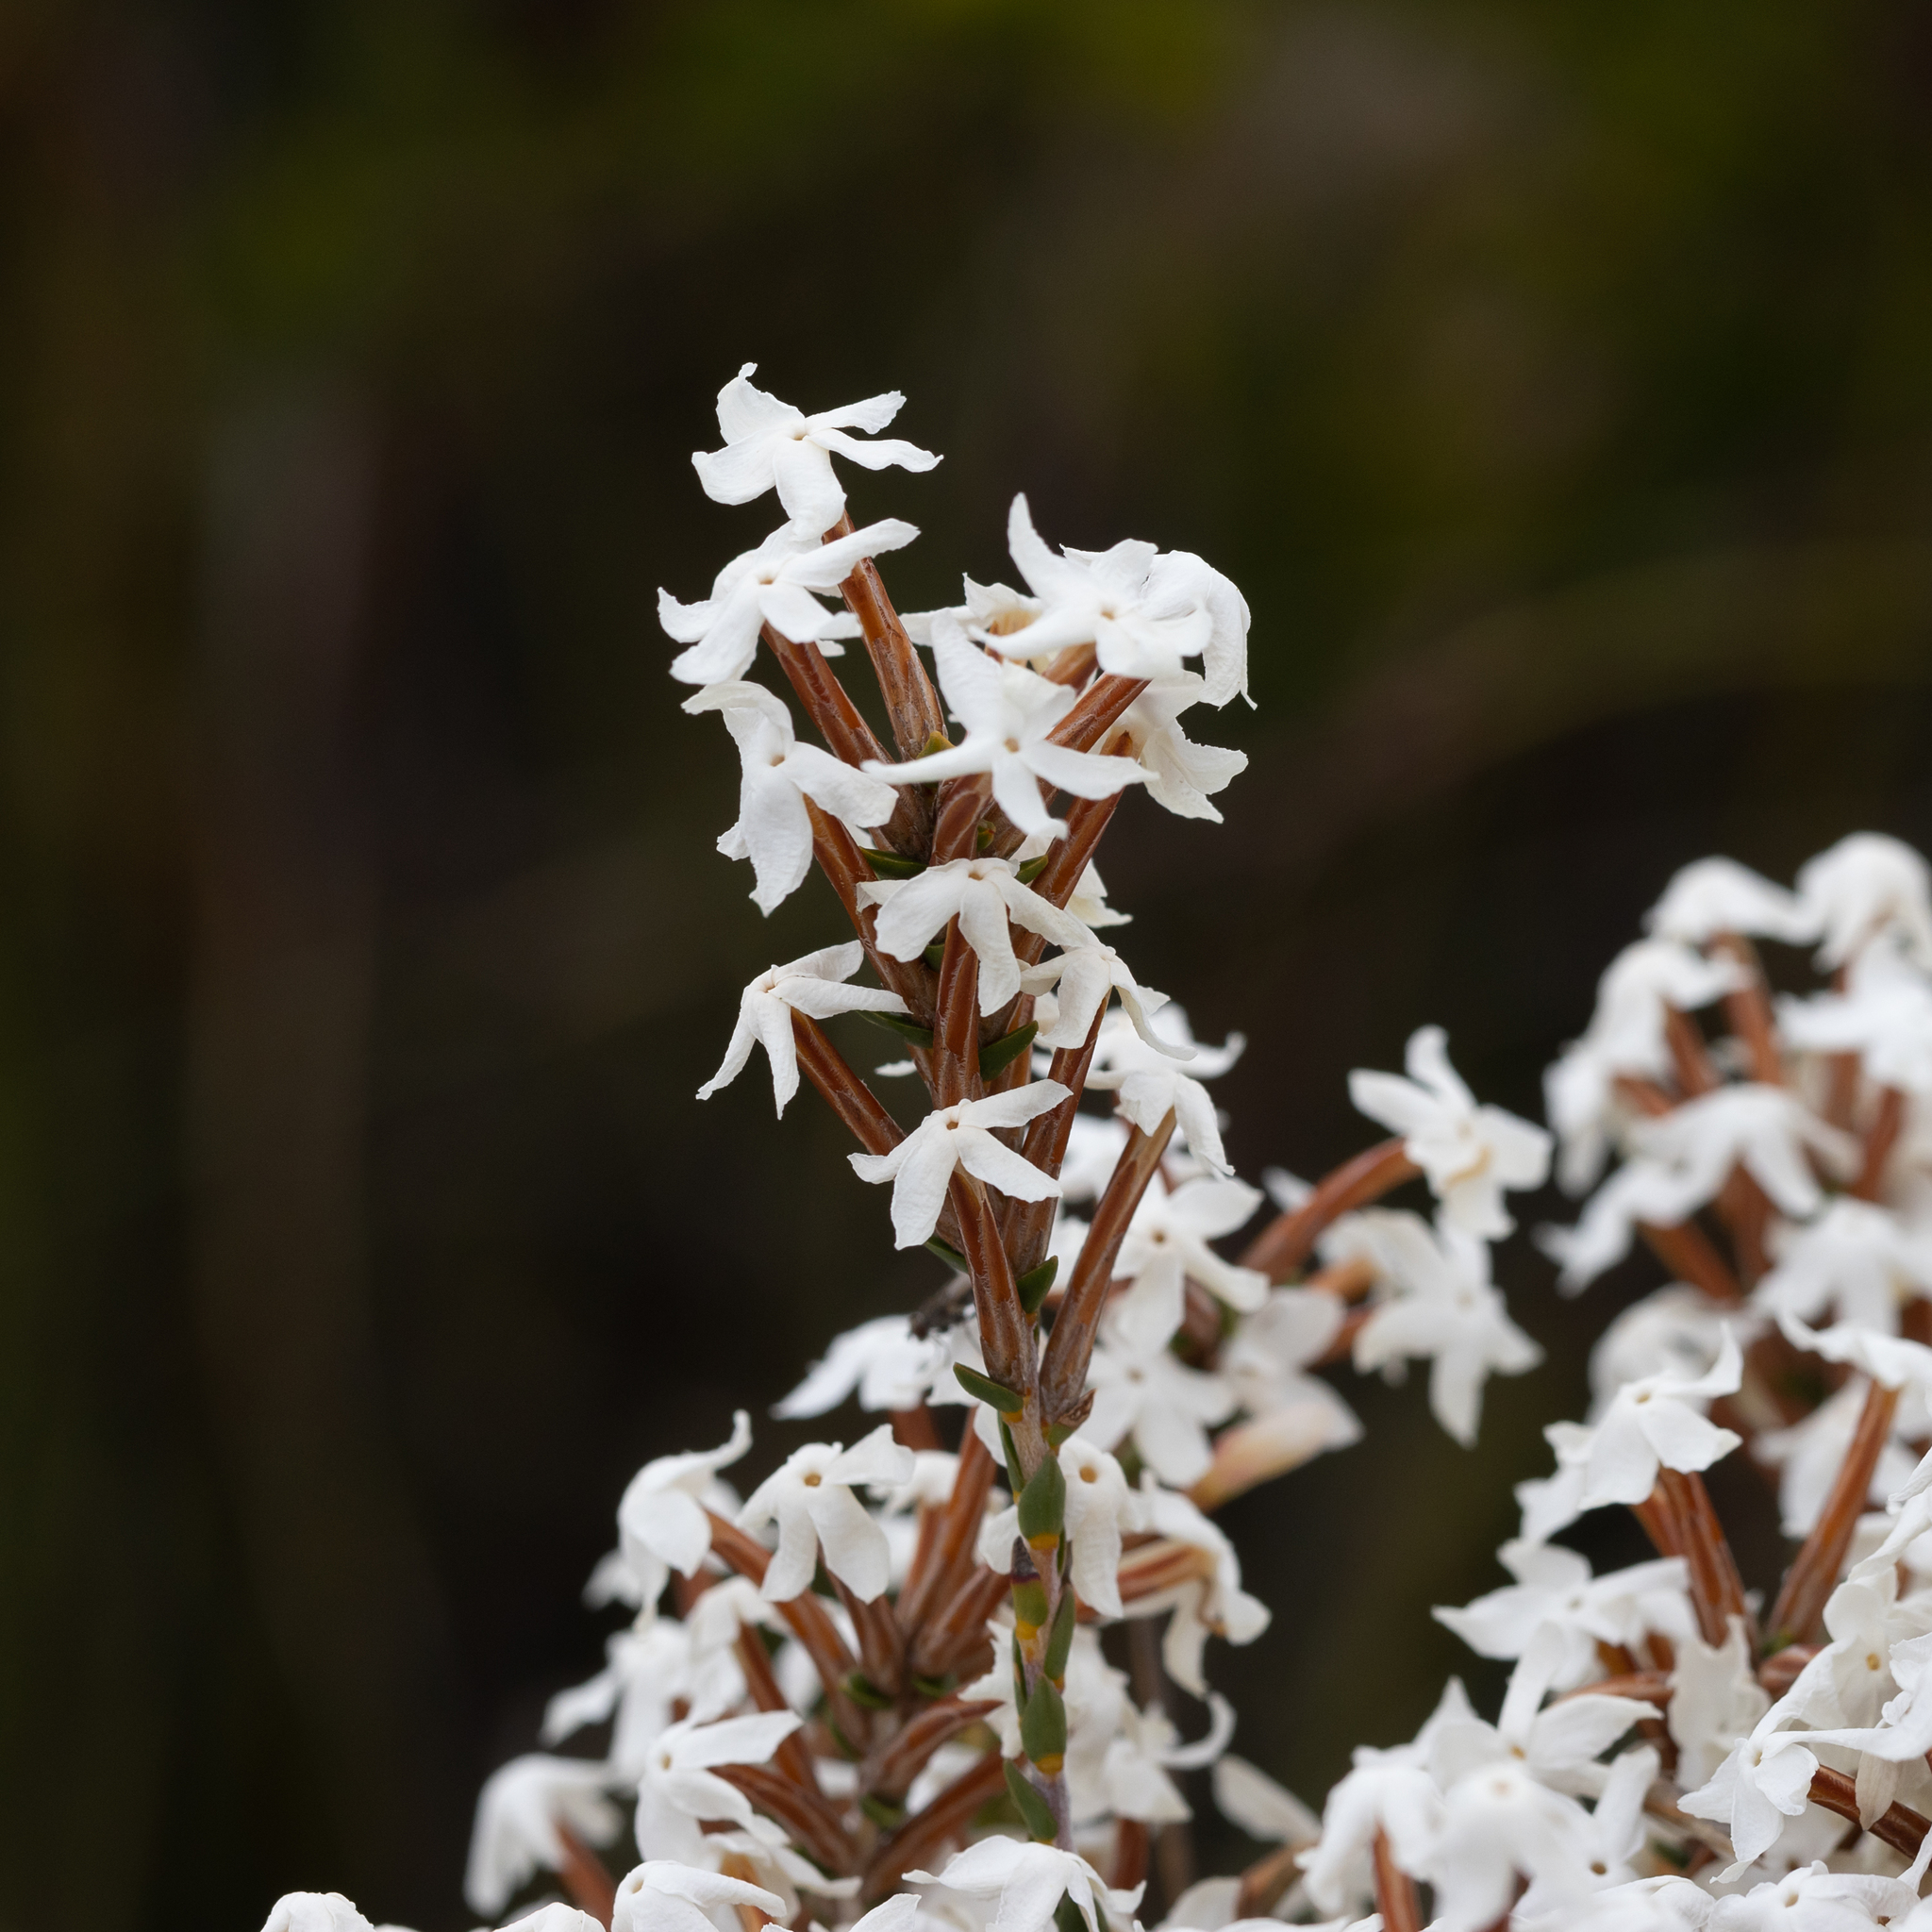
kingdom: Plantae
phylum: Tracheophyta
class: Magnoliopsida
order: Ericales
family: Ericaceae
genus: Lysinema
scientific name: Lysinema pentapetalum
